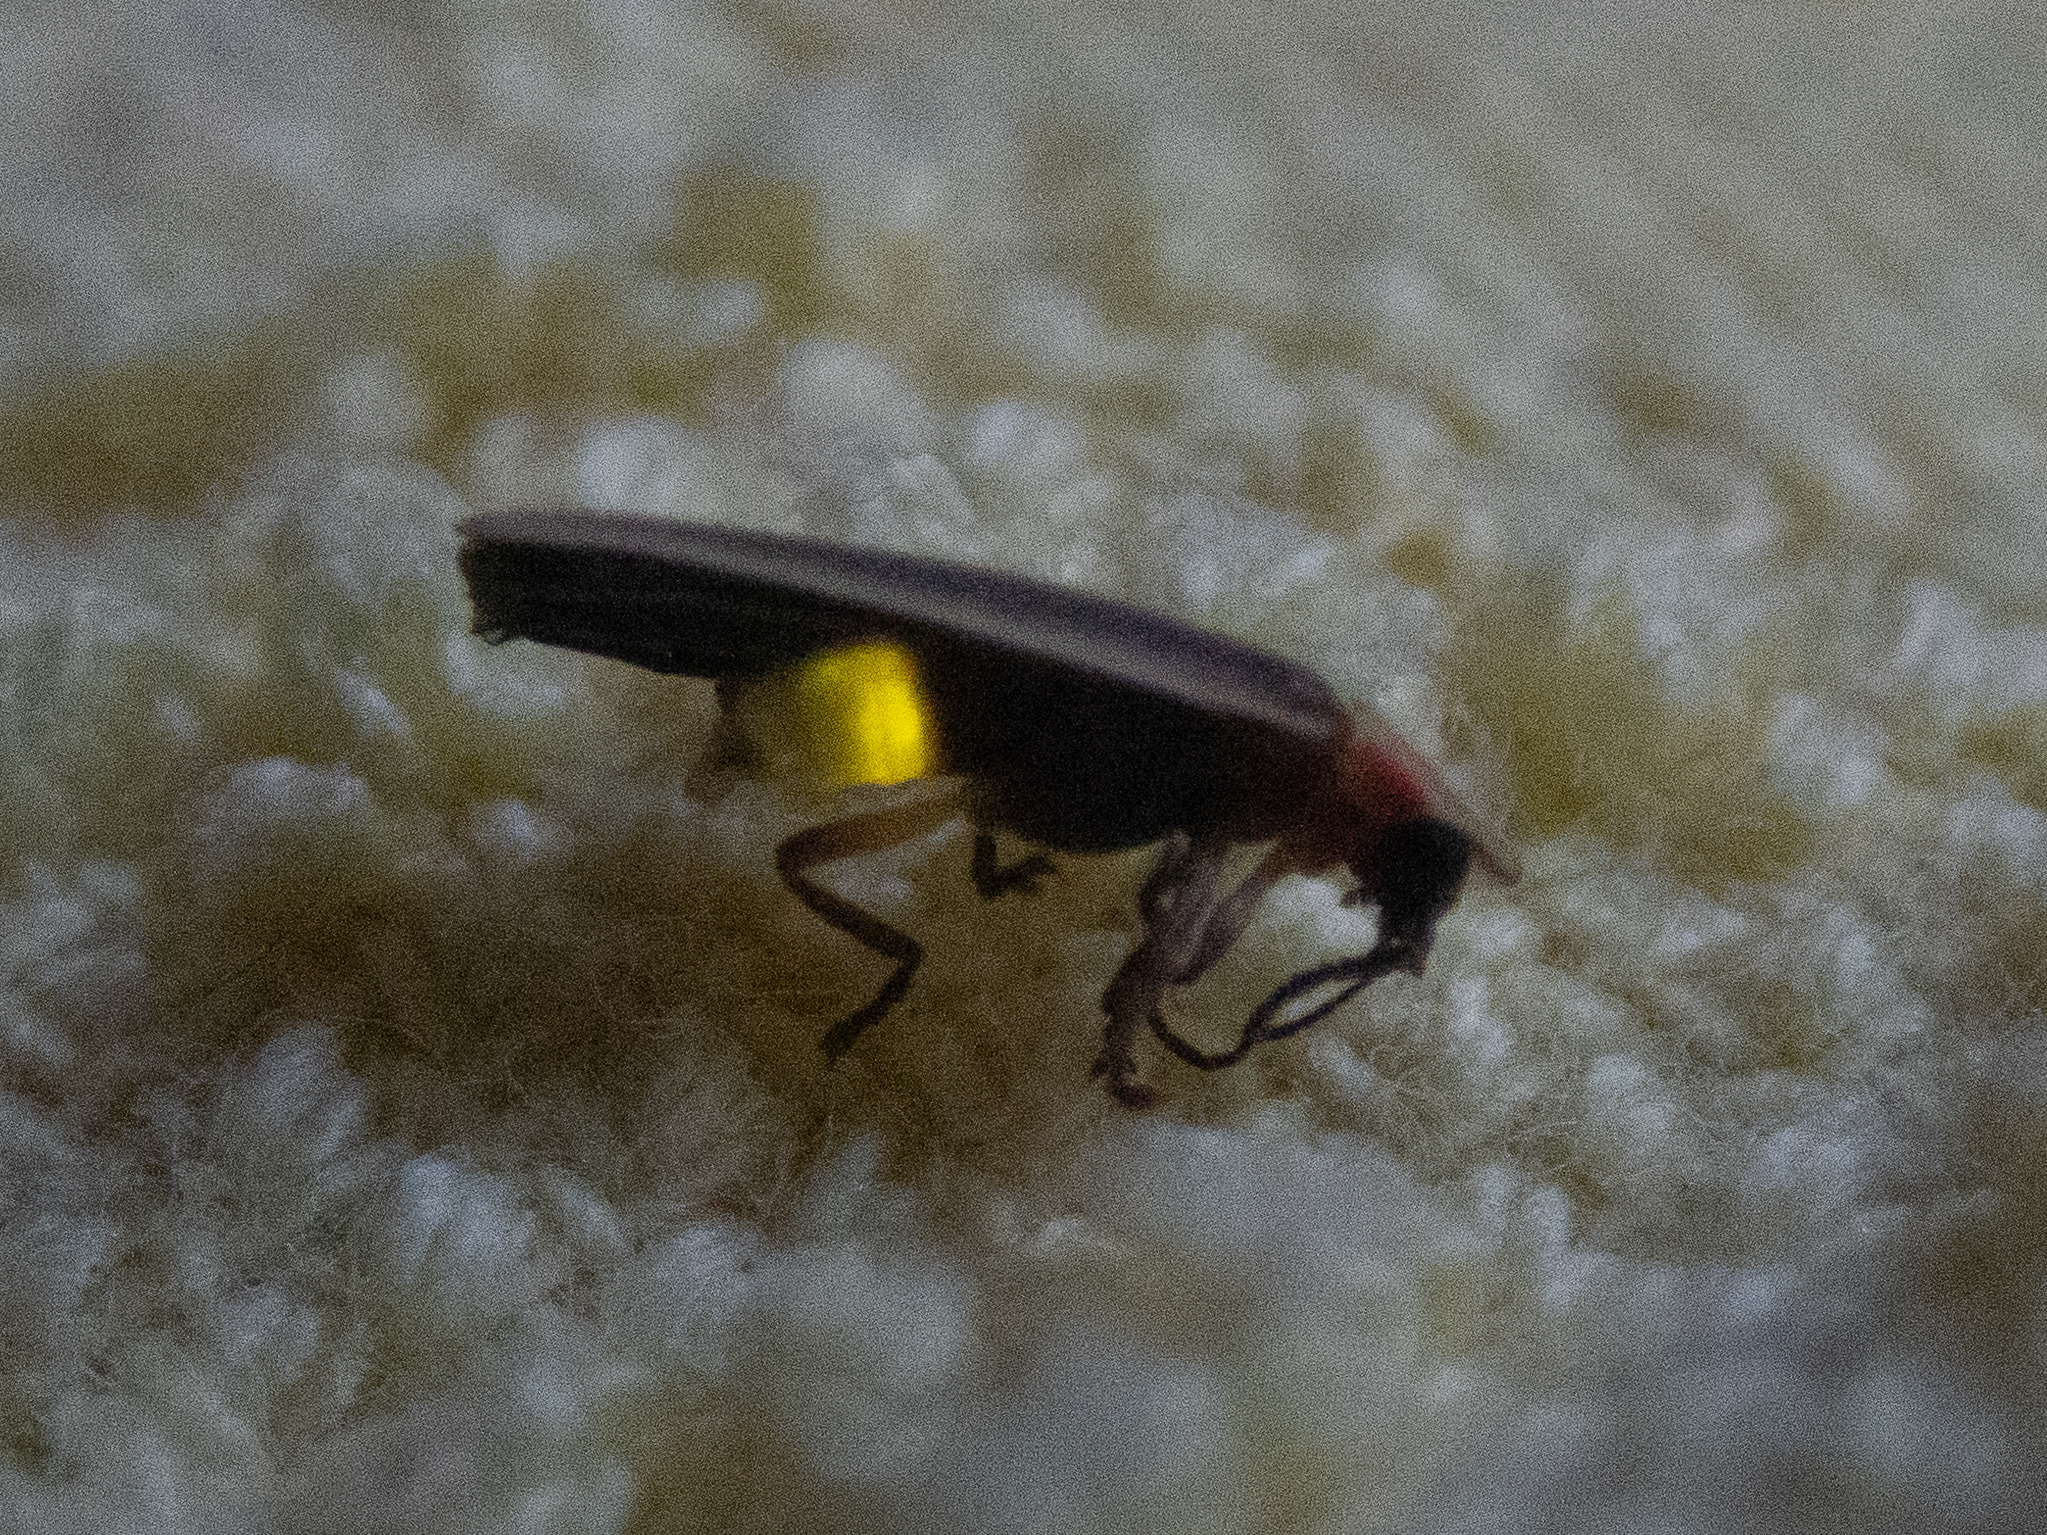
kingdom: Animalia
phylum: Arthropoda
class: Insecta
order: Coleoptera
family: Lampyridae
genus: Photinus
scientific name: Photinus marginellus
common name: Little gray firefly
